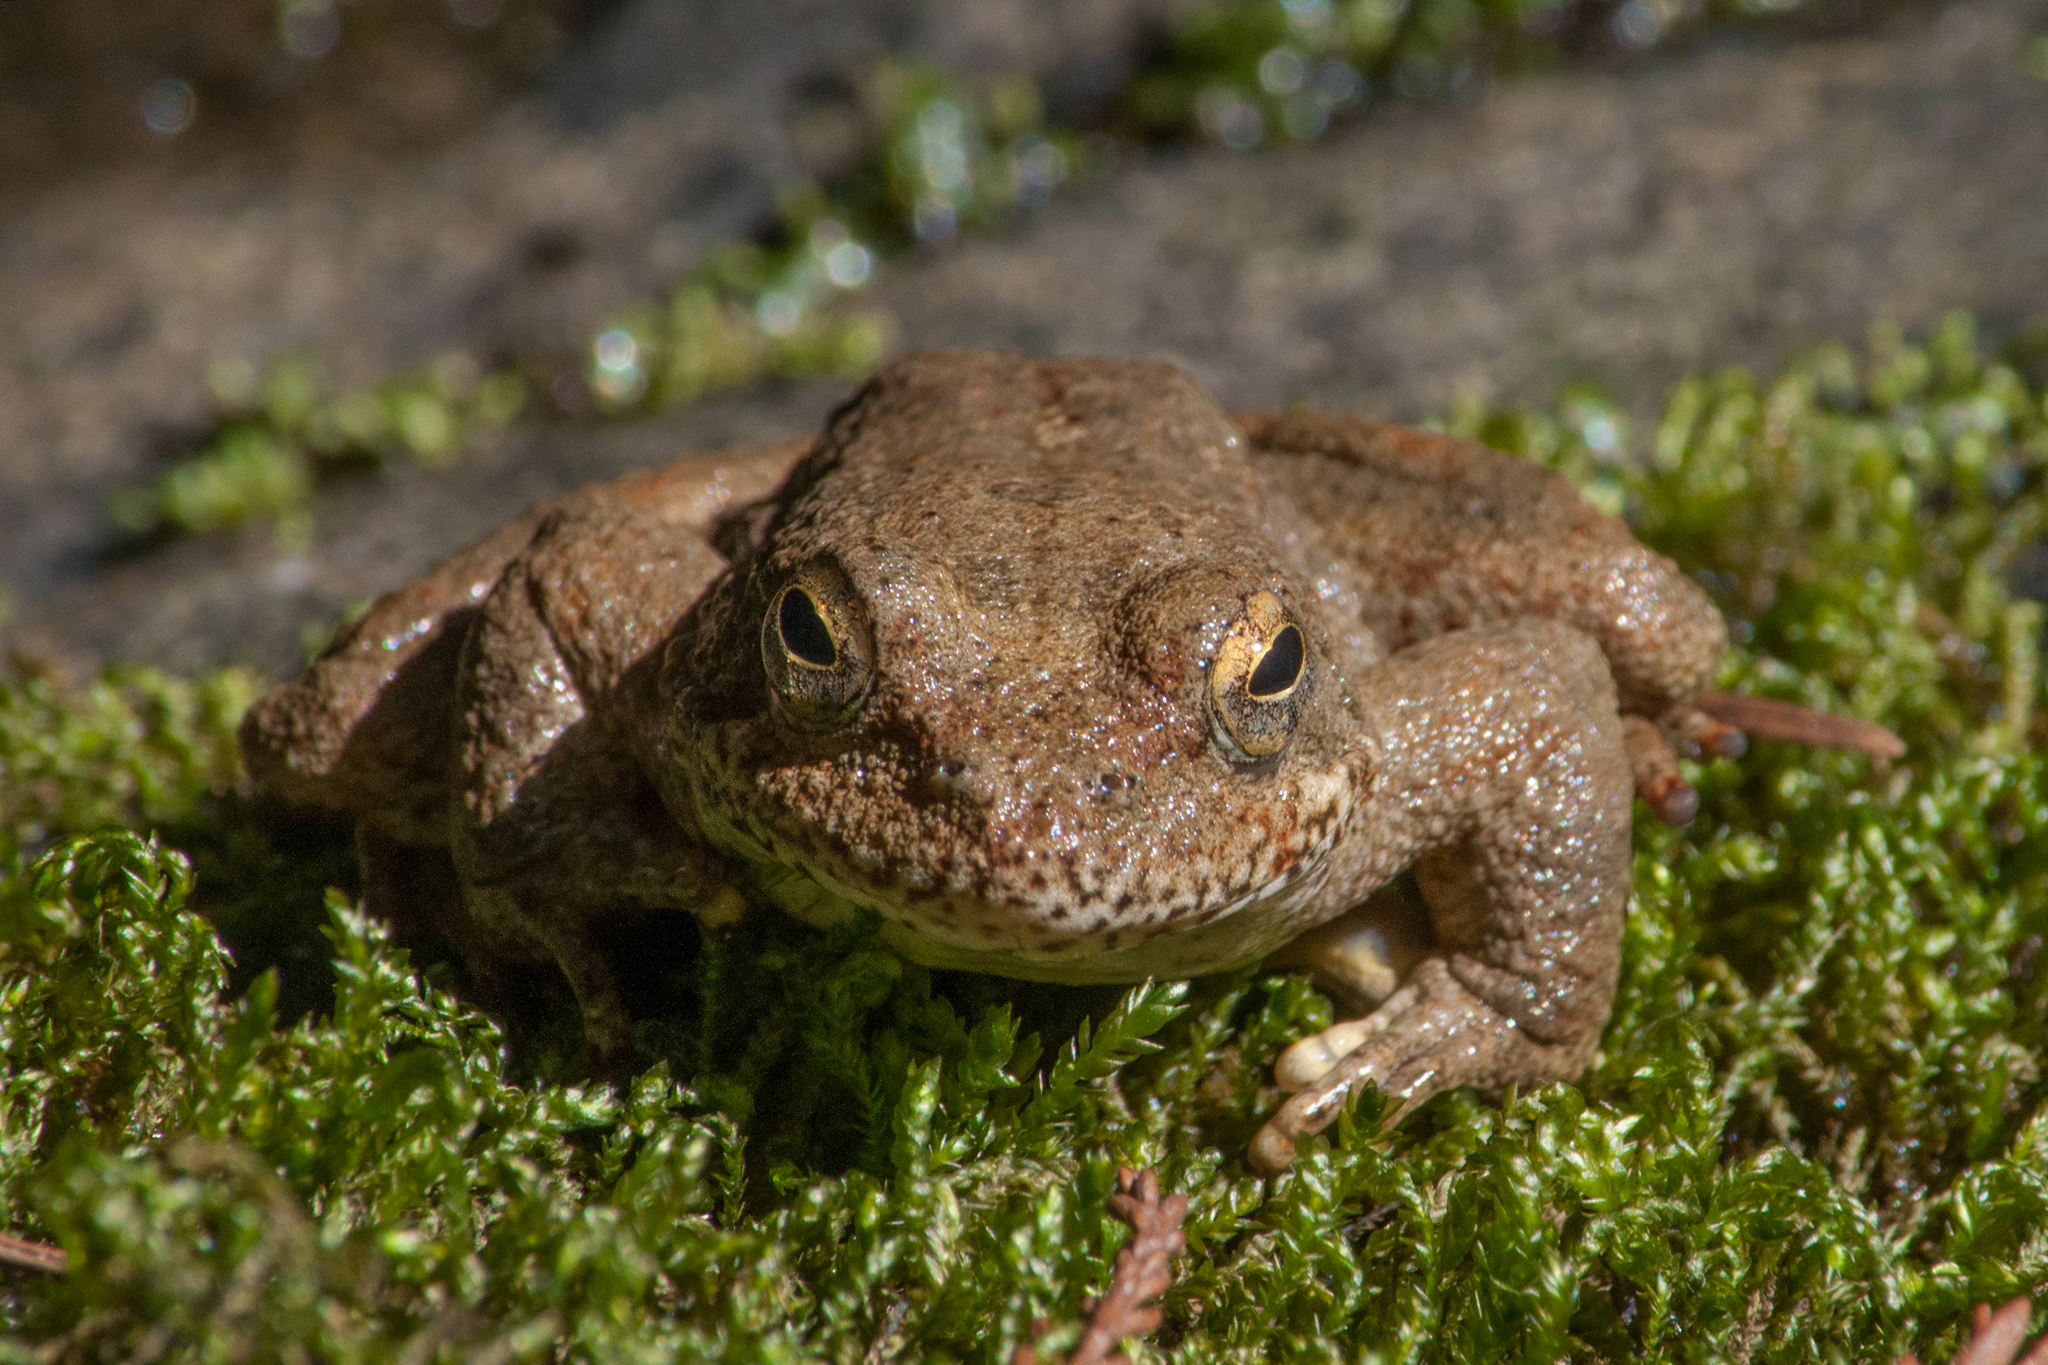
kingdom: Animalia
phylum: Chordata
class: Amphibia
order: Anura
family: Ranidae
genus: Rana
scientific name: Rana boylii
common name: Foothill yellow-legged frog
